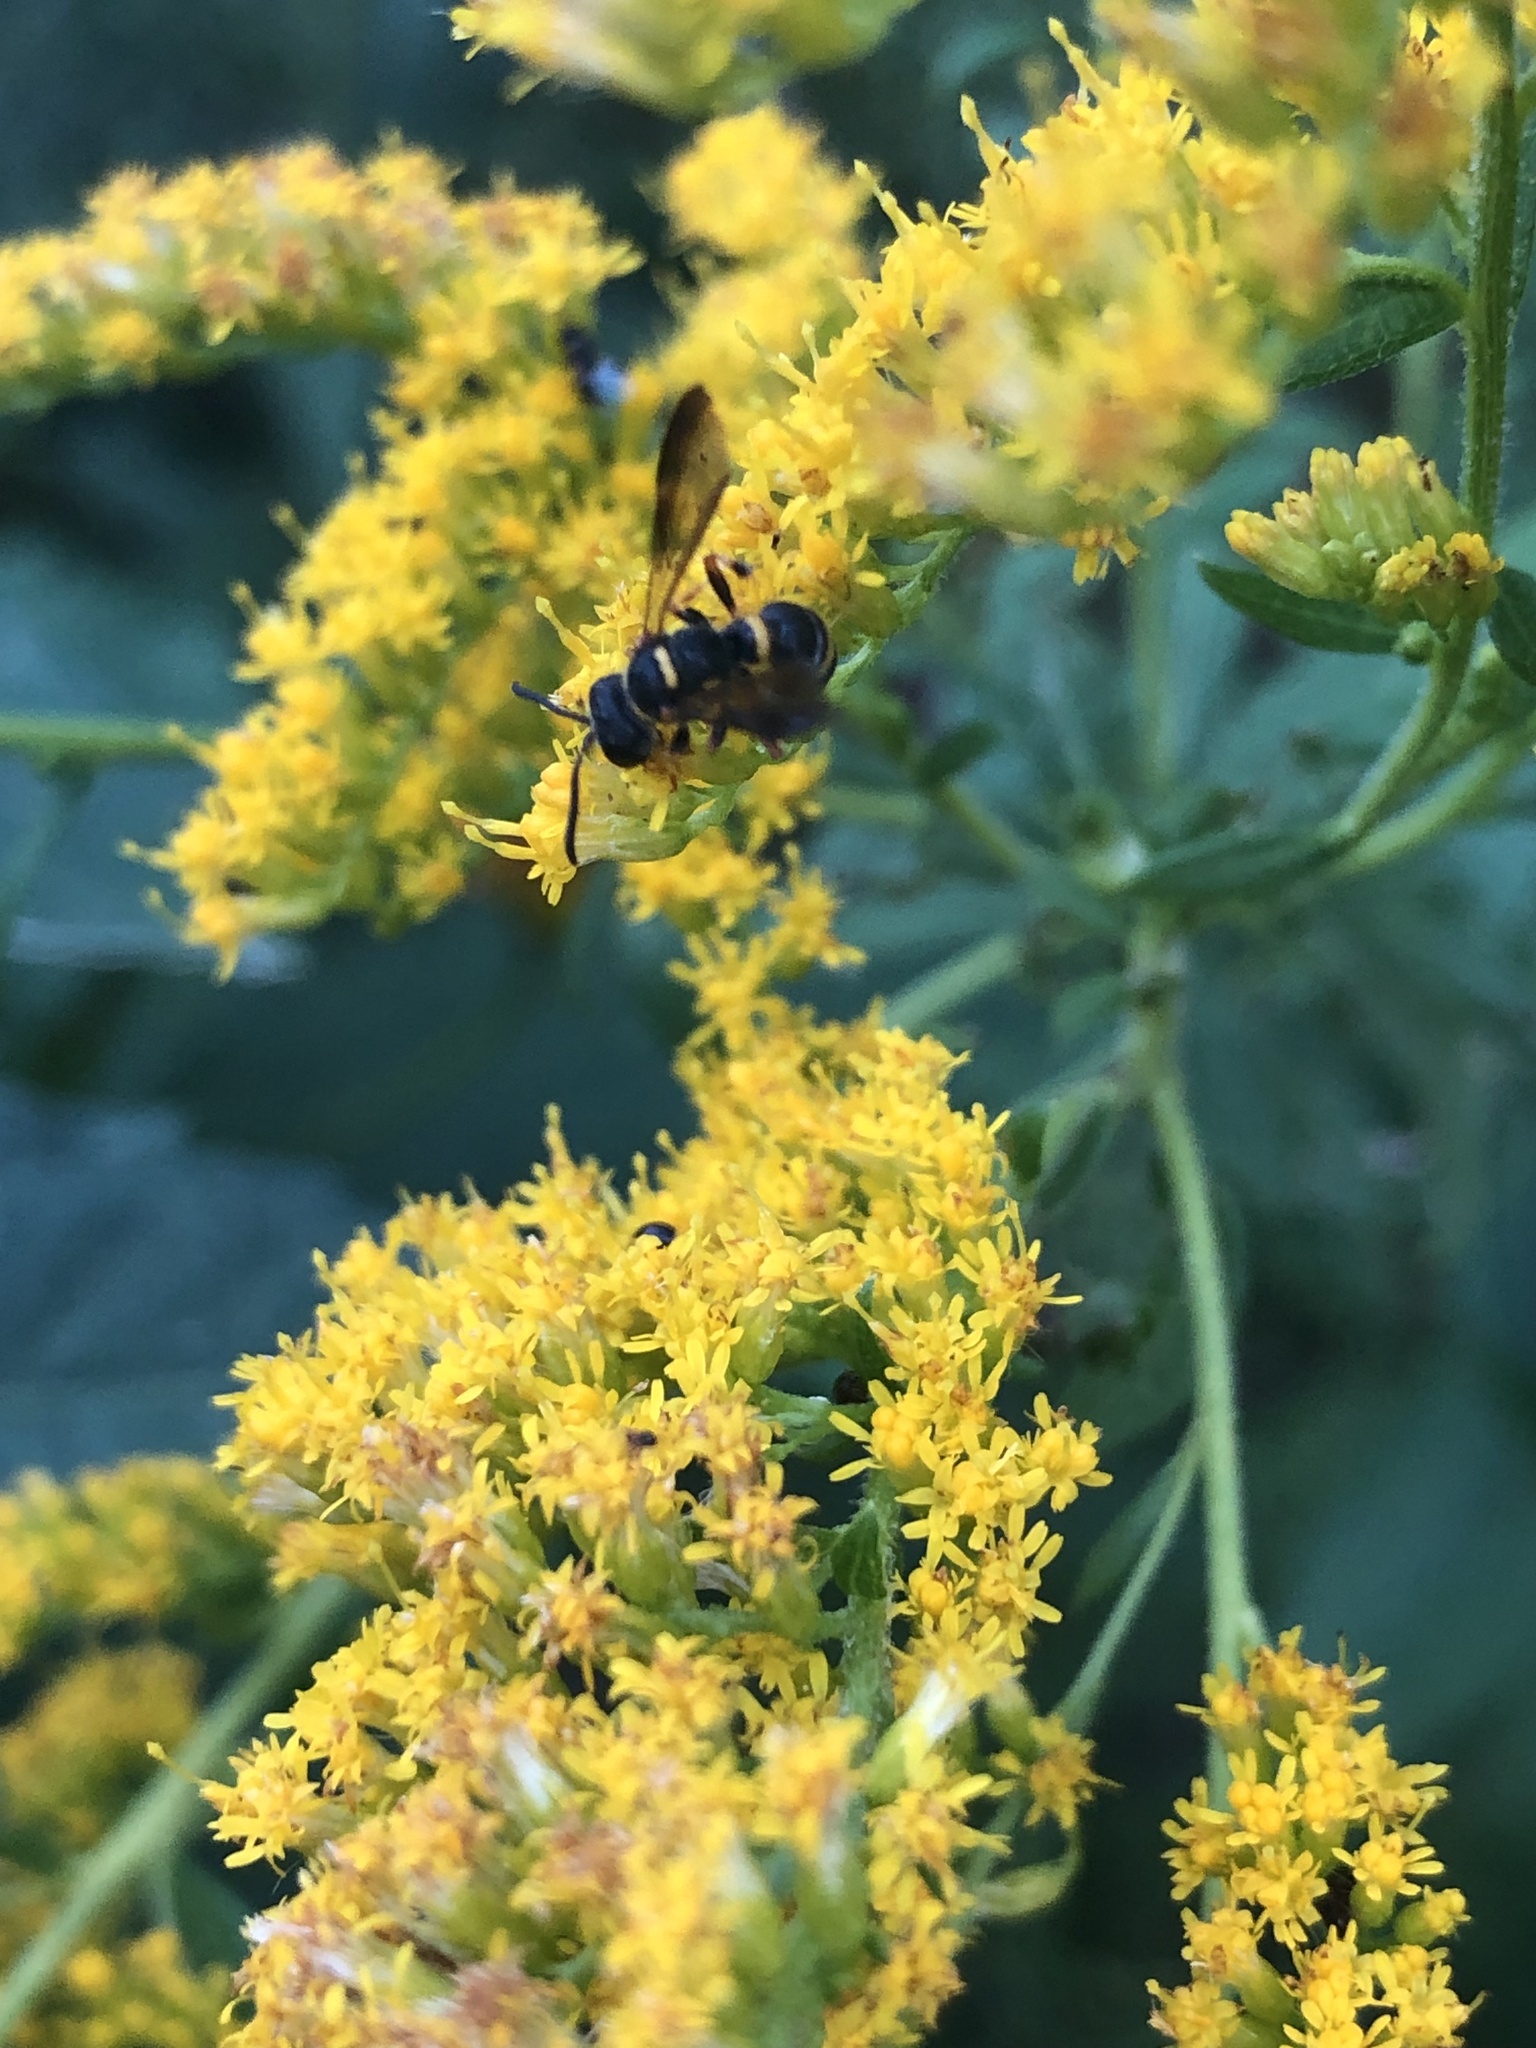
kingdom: Animalia
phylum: Arthropoda
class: Insecta
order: Hymenoptera
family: Crabronidae
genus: Cerceris
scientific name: Cerceris insolita
